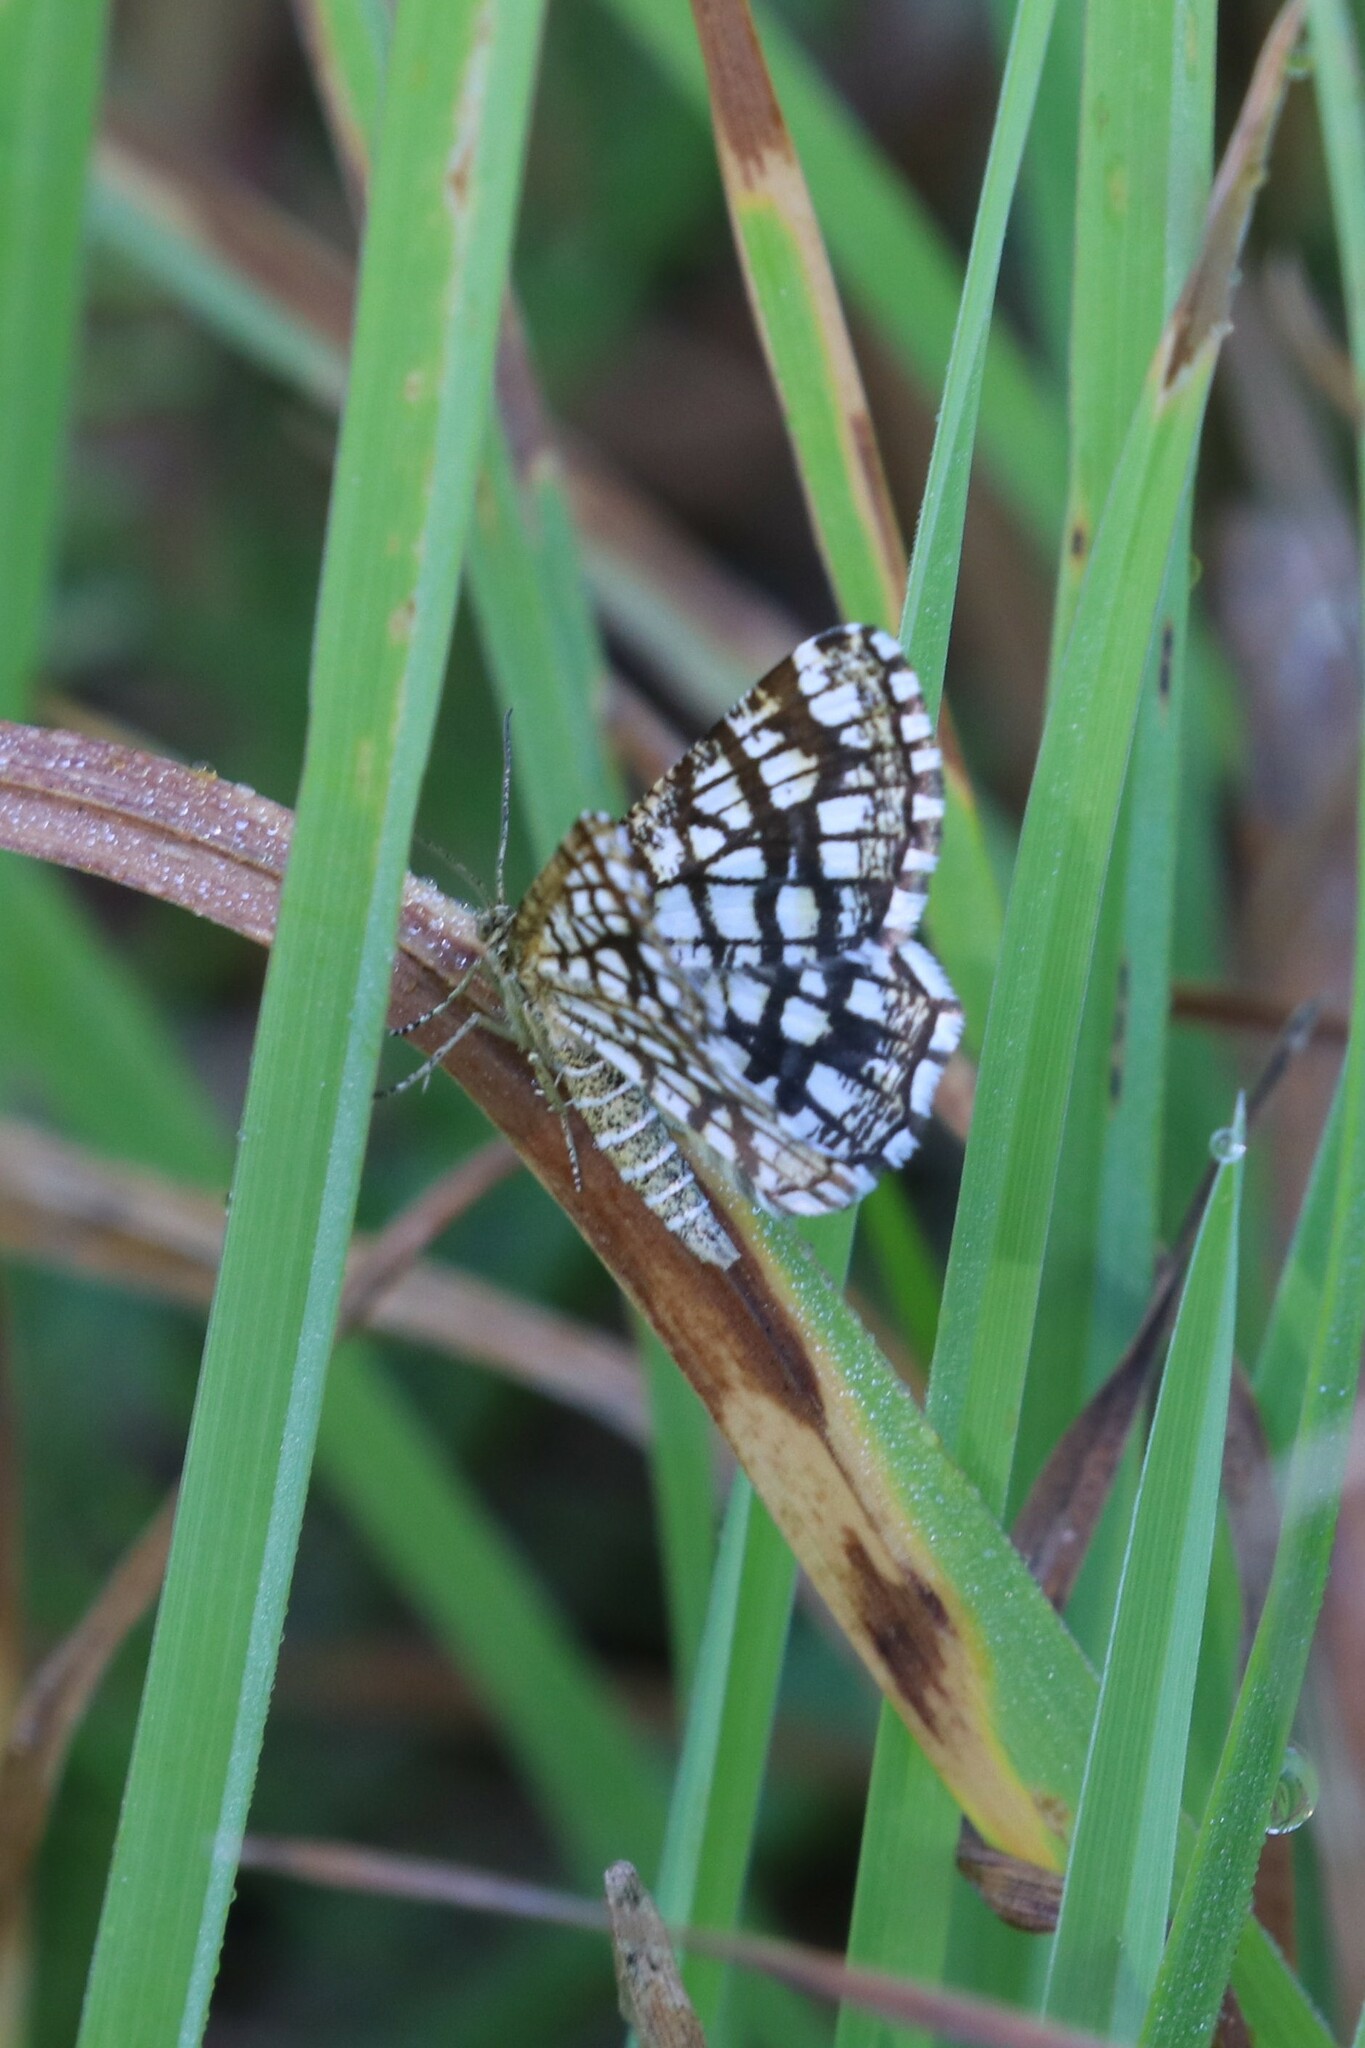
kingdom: Animalia
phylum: Arthropoda
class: Insecta
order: Lepidoptera
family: Geometridae
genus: Chiasmia
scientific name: Chiasmia clathrata
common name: Latticed heath
